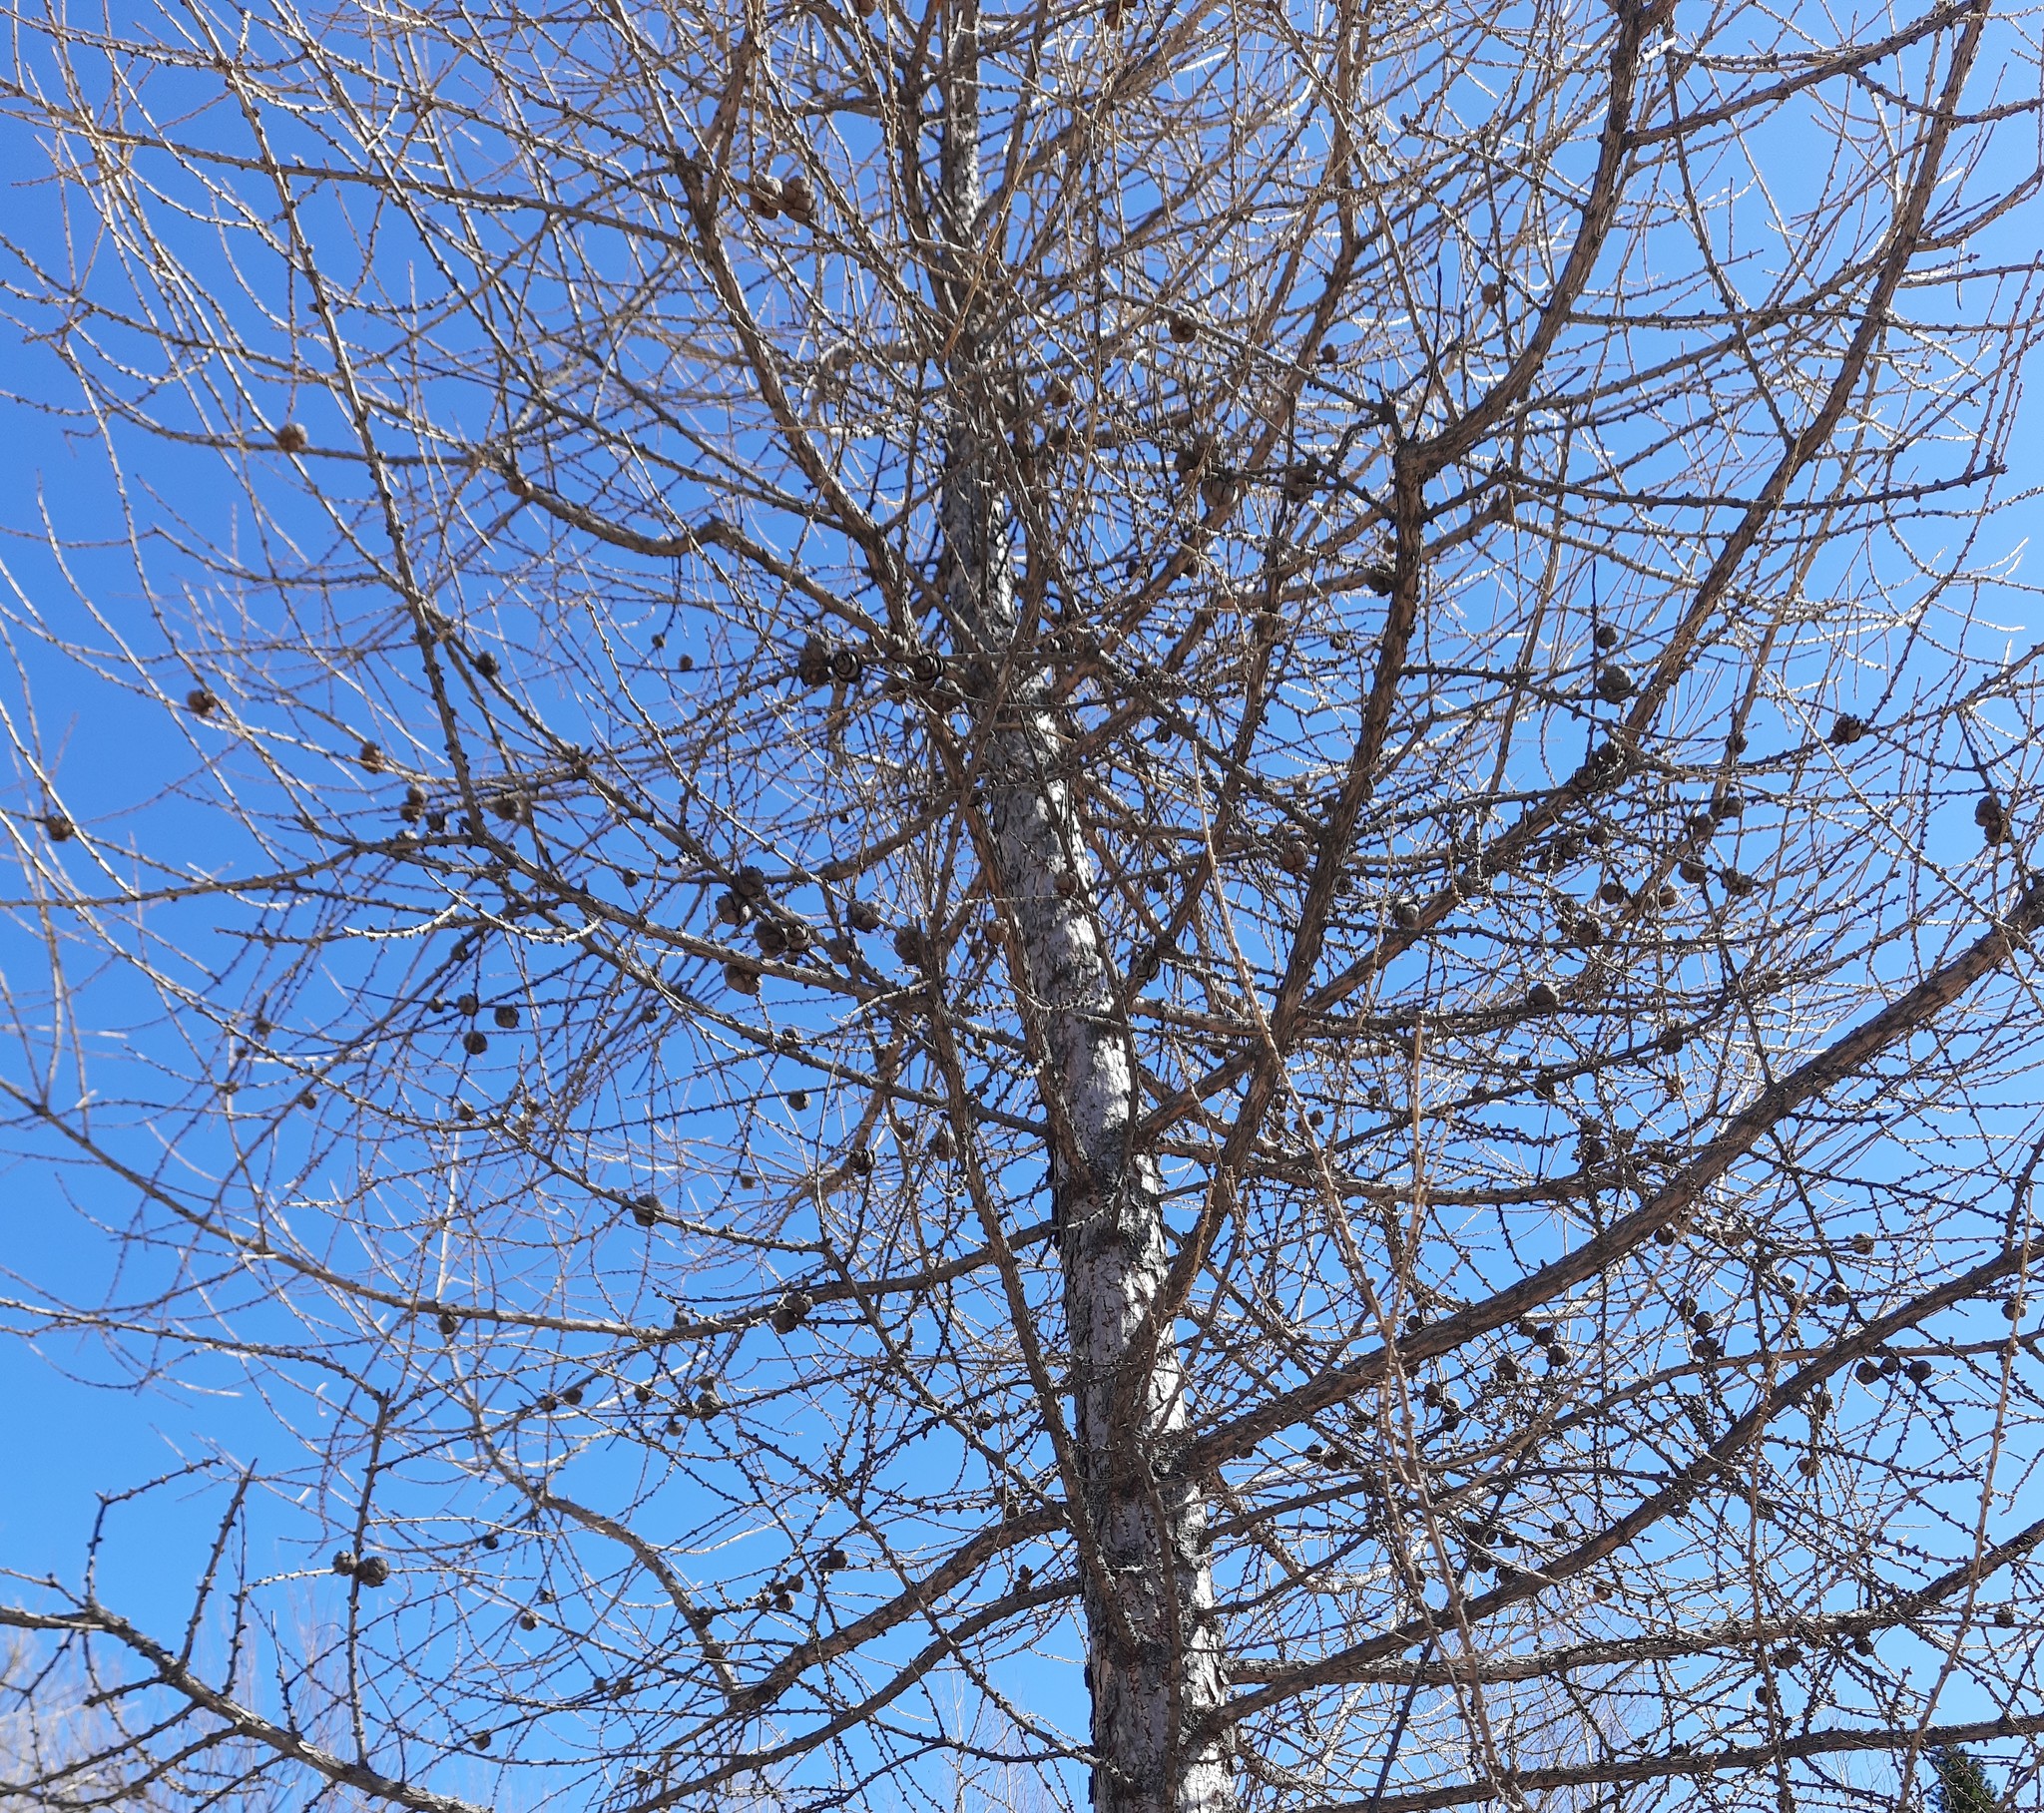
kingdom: Plantae
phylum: Tracheophyta
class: Pinopsida
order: Pinales
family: Pinaceae
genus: Larix
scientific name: Larix sibirica
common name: Siberian larch
